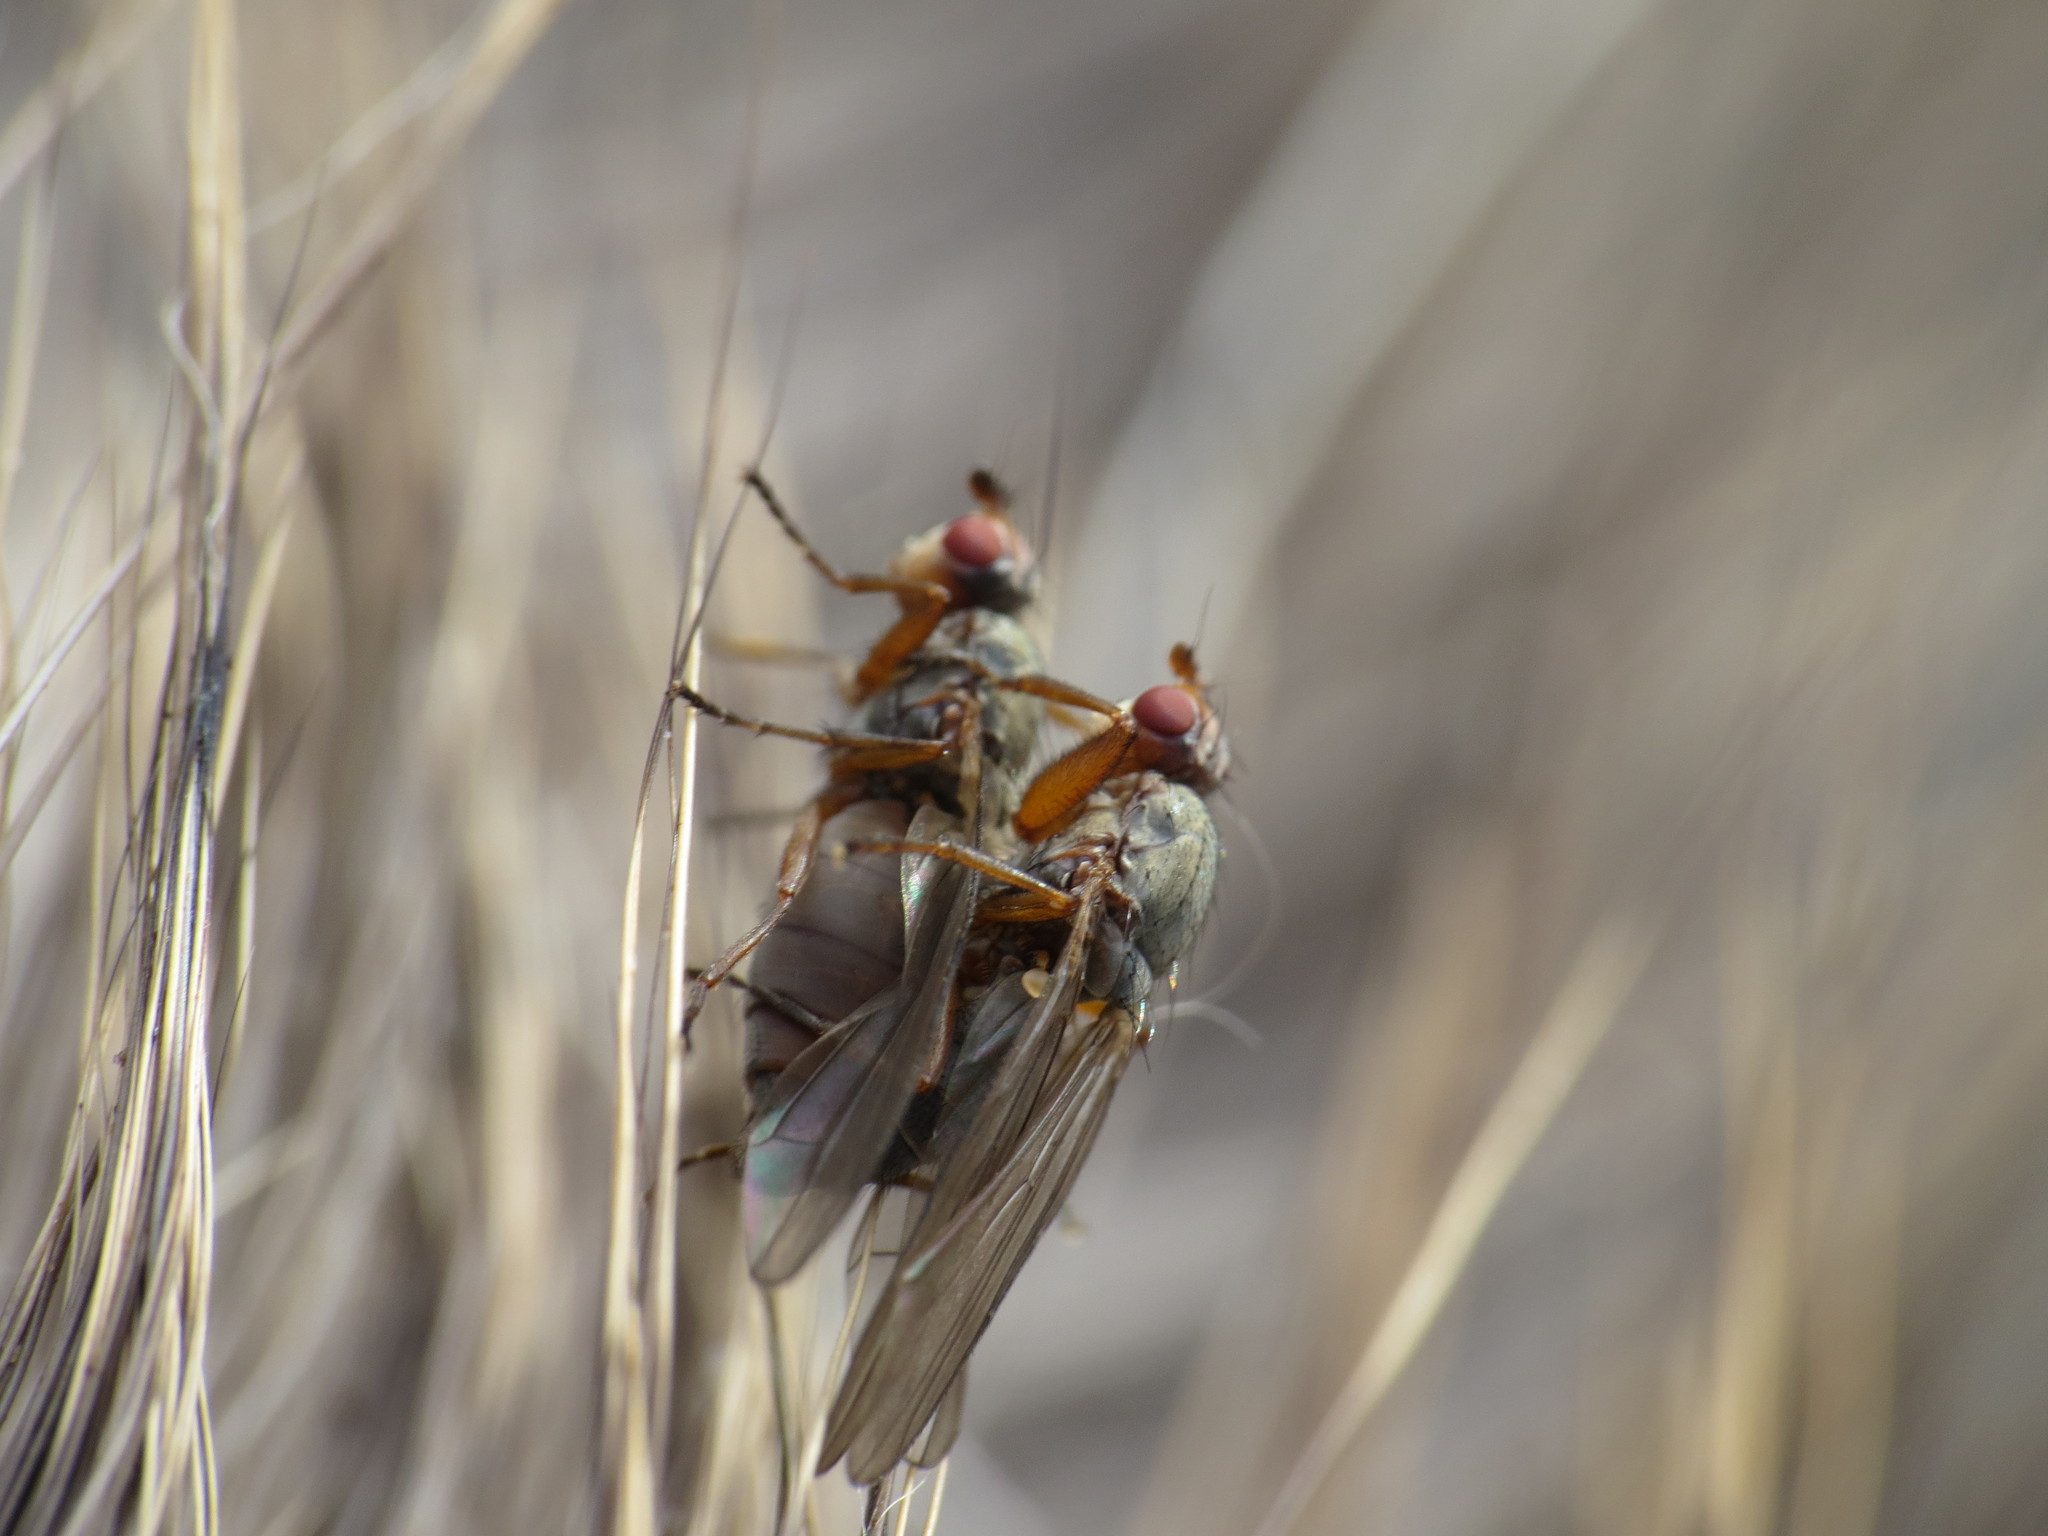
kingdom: Animalia
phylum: Arthropoda
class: Insecta
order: Diptera
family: Heleomyzidae
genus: Orbellia
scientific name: Orbellia barbata
